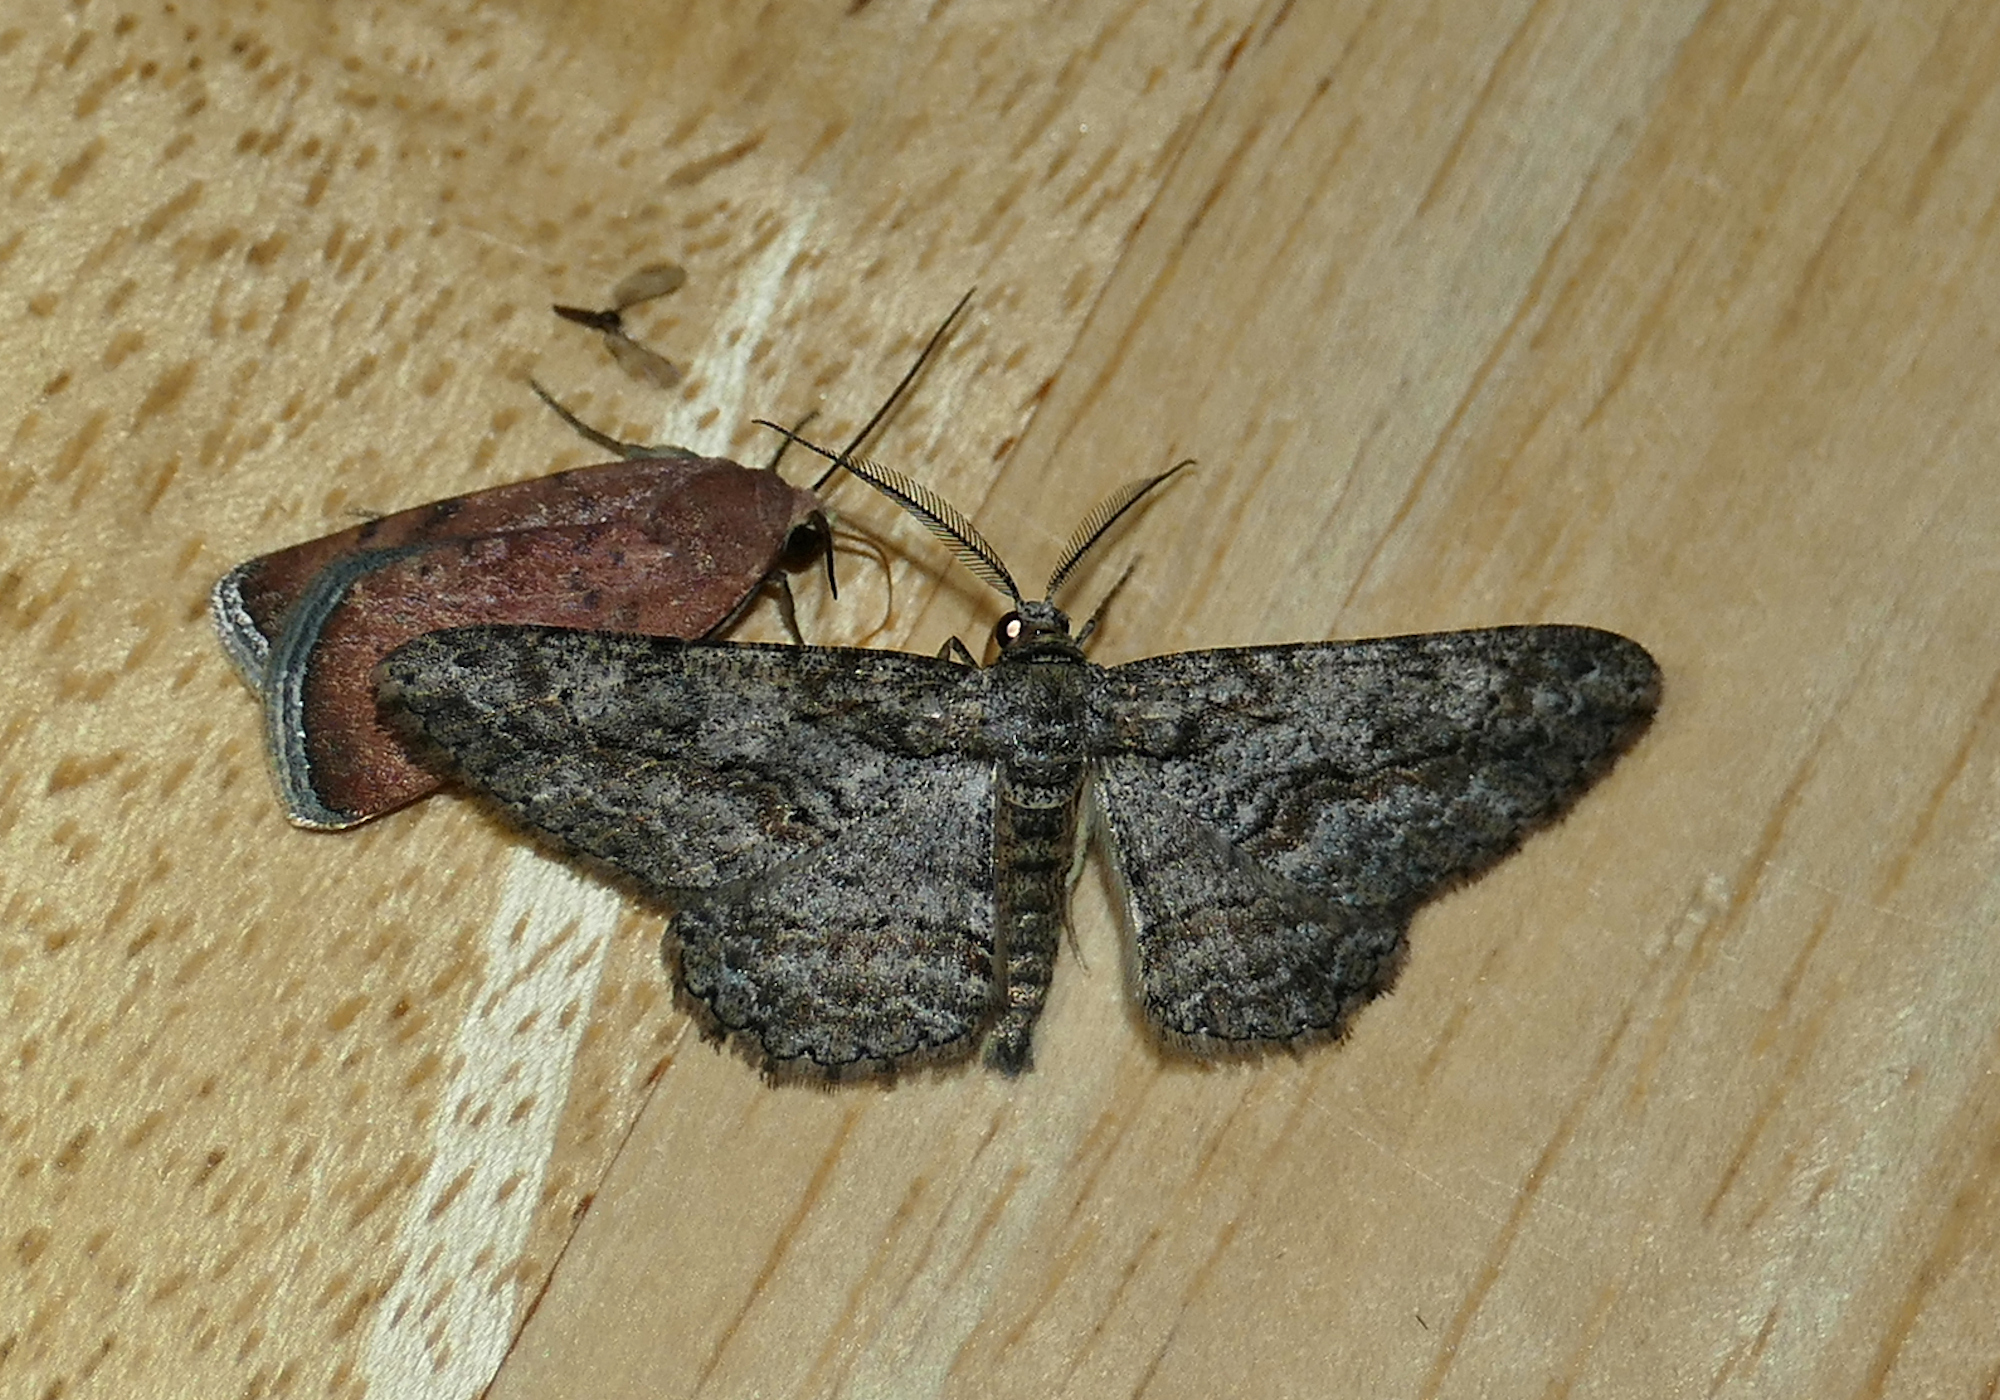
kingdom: Animalia
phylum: Arthropoda
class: Insecta
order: Lepidoptera
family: Geometridae
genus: Anavitrinella
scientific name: Anavitrinella pampinaria
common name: Common gray
